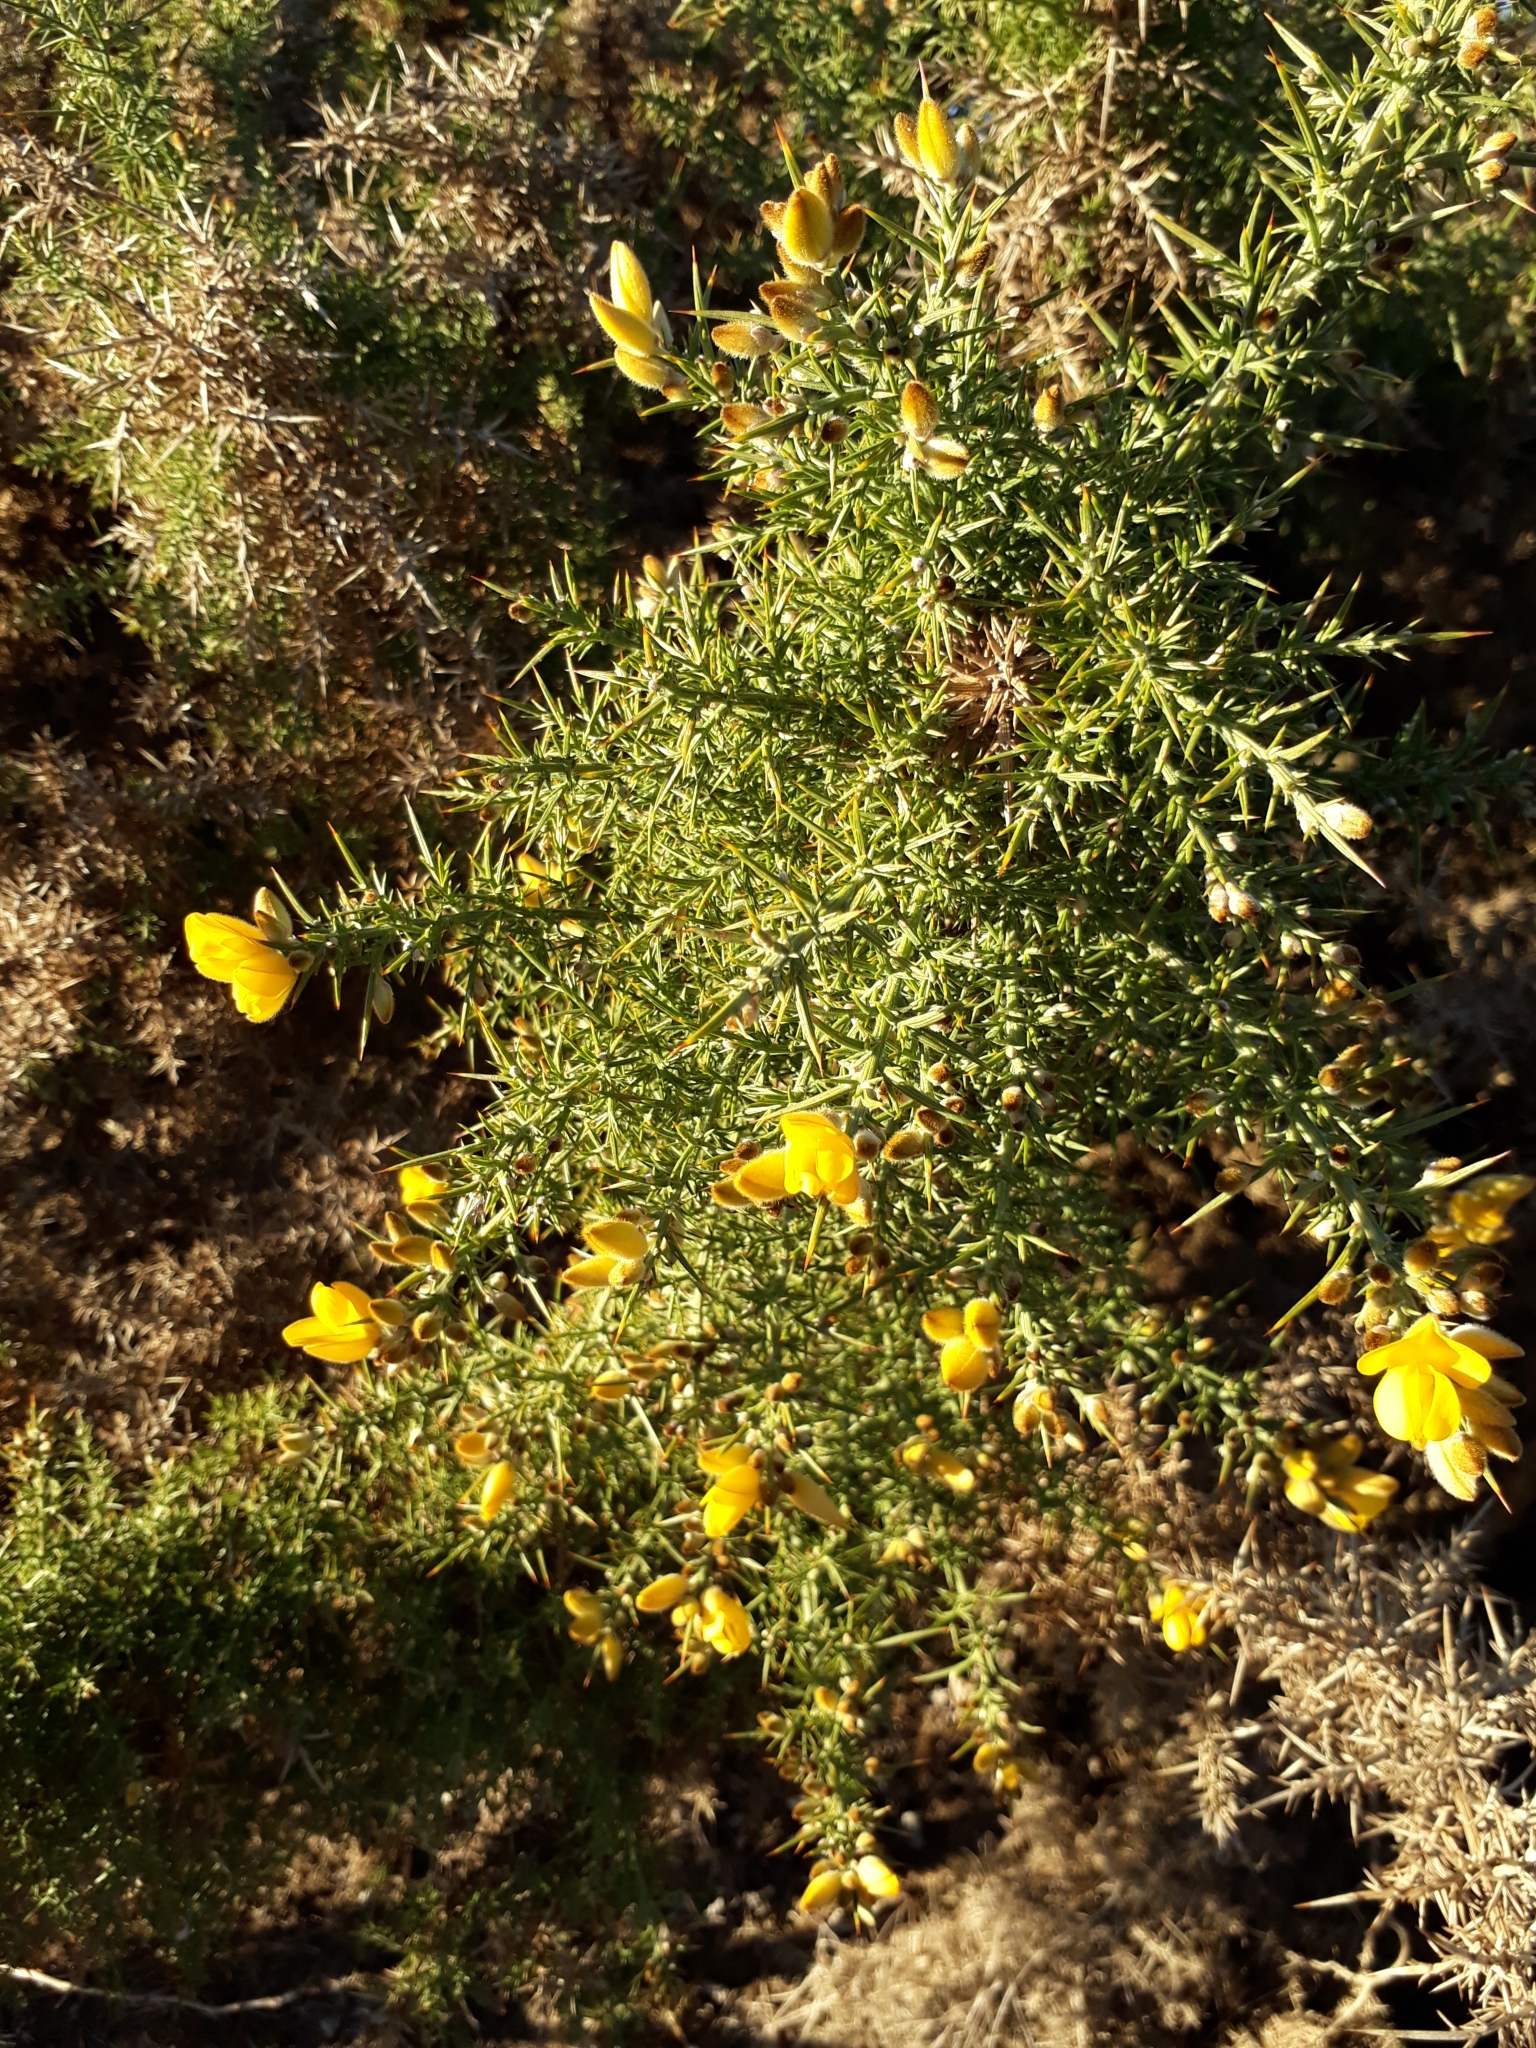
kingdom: Plantae
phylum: Tracheophyta
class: Magnoliopsida
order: Fabales
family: Fabaceae
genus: Ulex
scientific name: Ulex europaeus
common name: Common gorse
